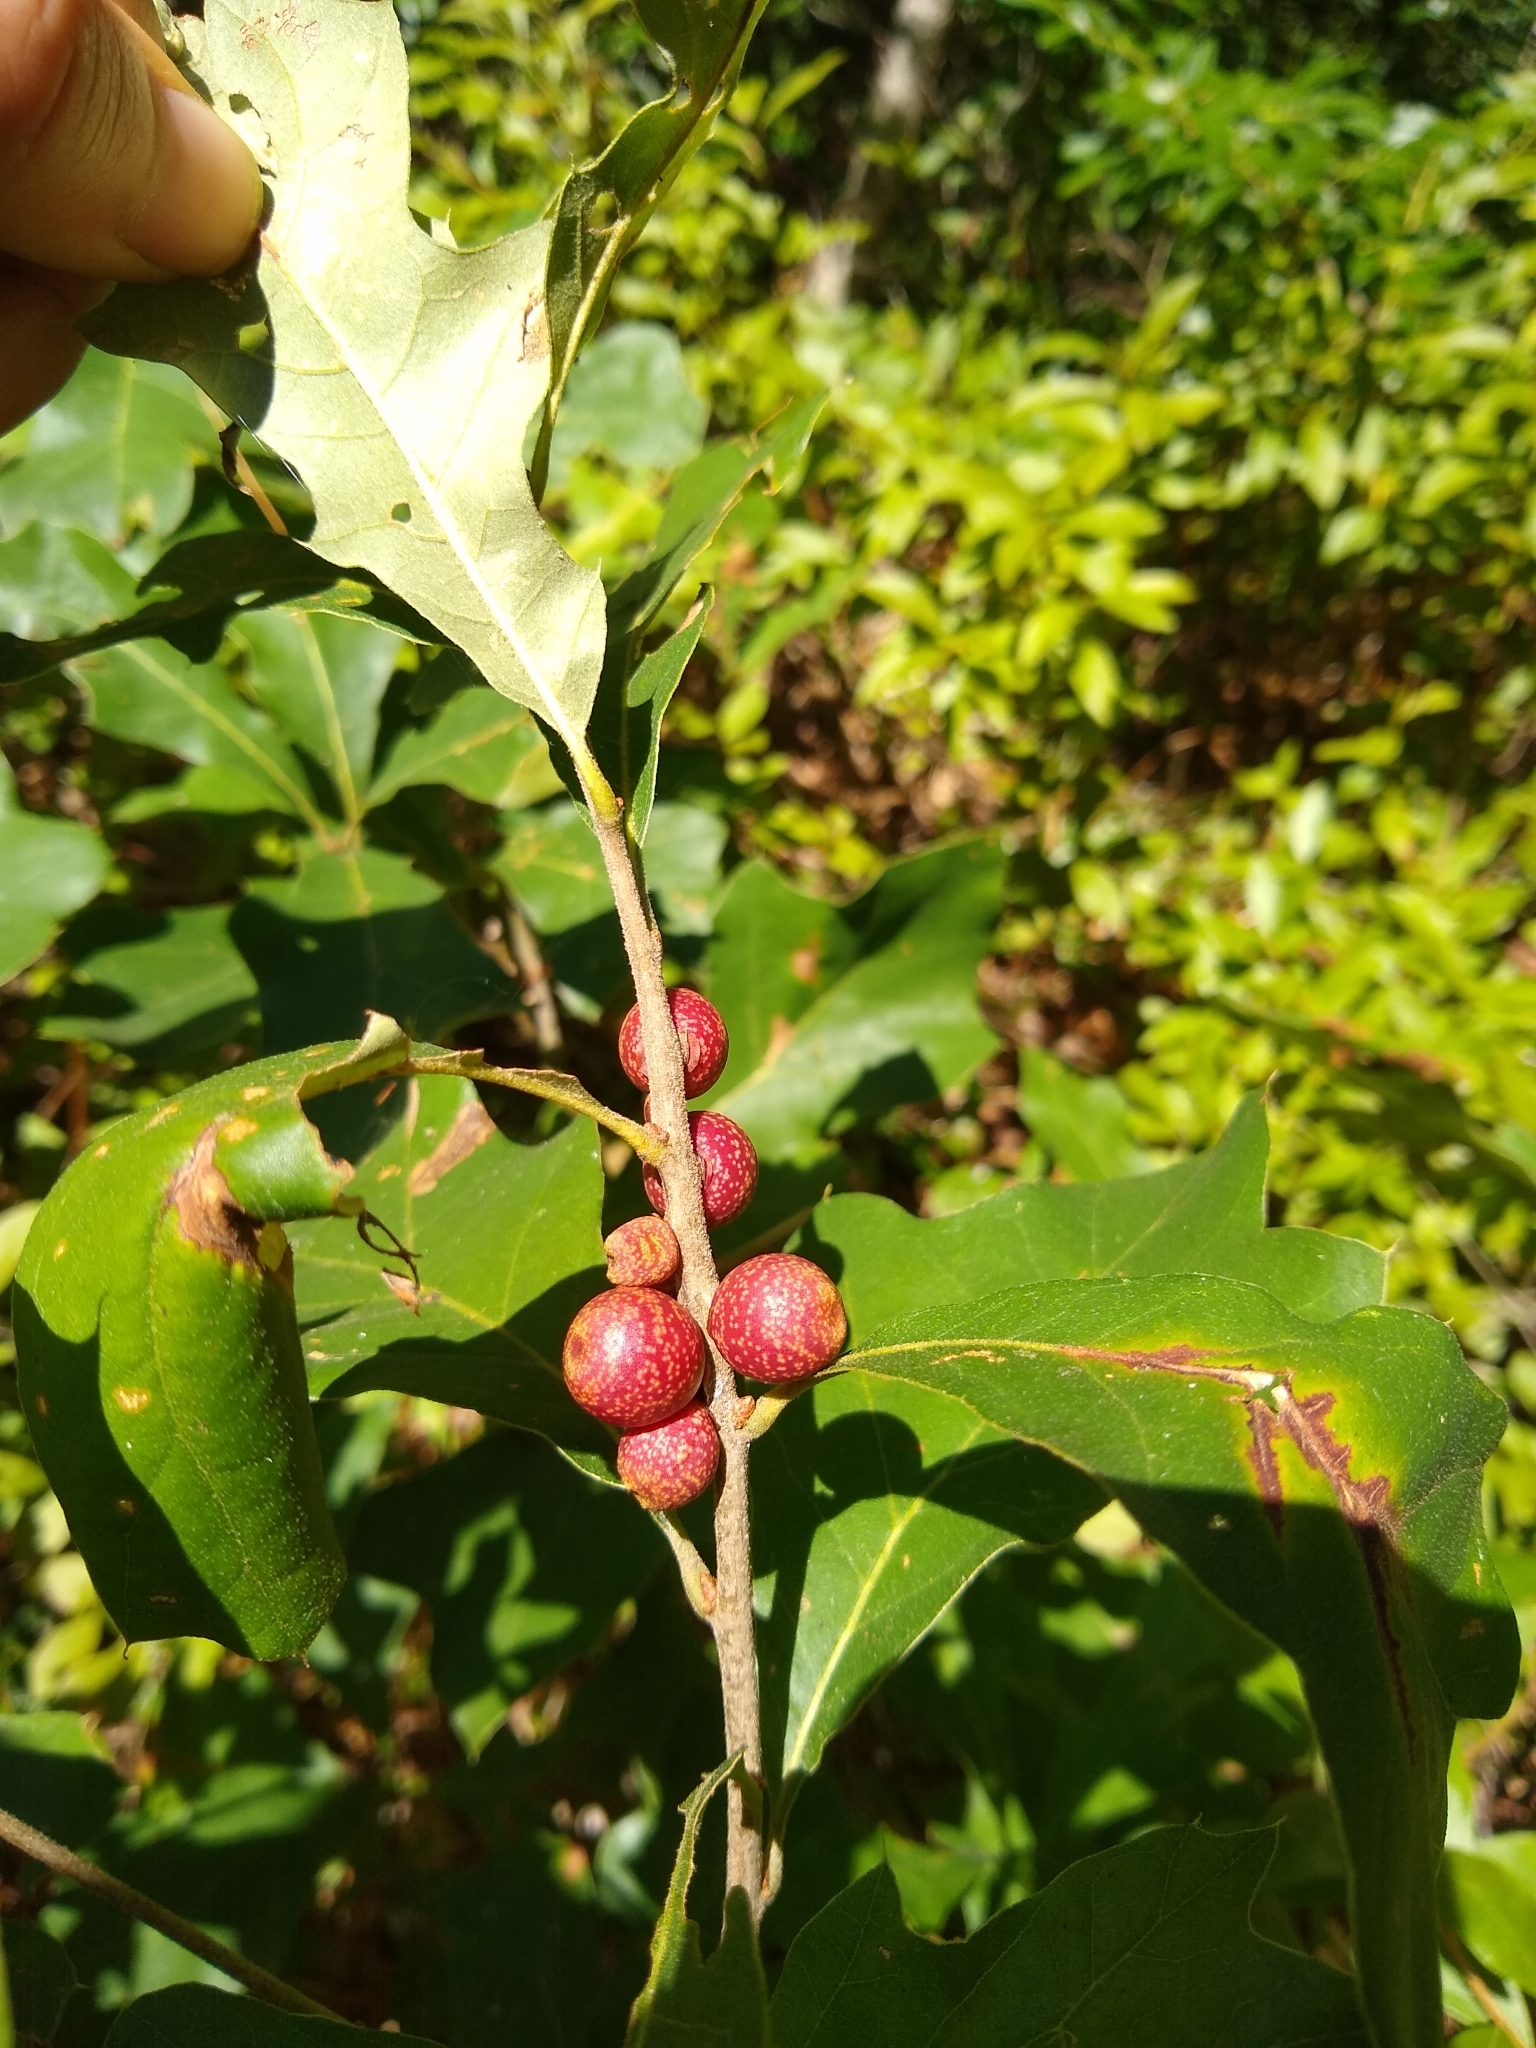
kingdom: Animalia
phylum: Arthropoda
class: Insecta
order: Hymenoptera
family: Cynipidae
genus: Kokkocynips
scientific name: Kokkocynips imbricariae
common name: Banded bullet gall wasp
